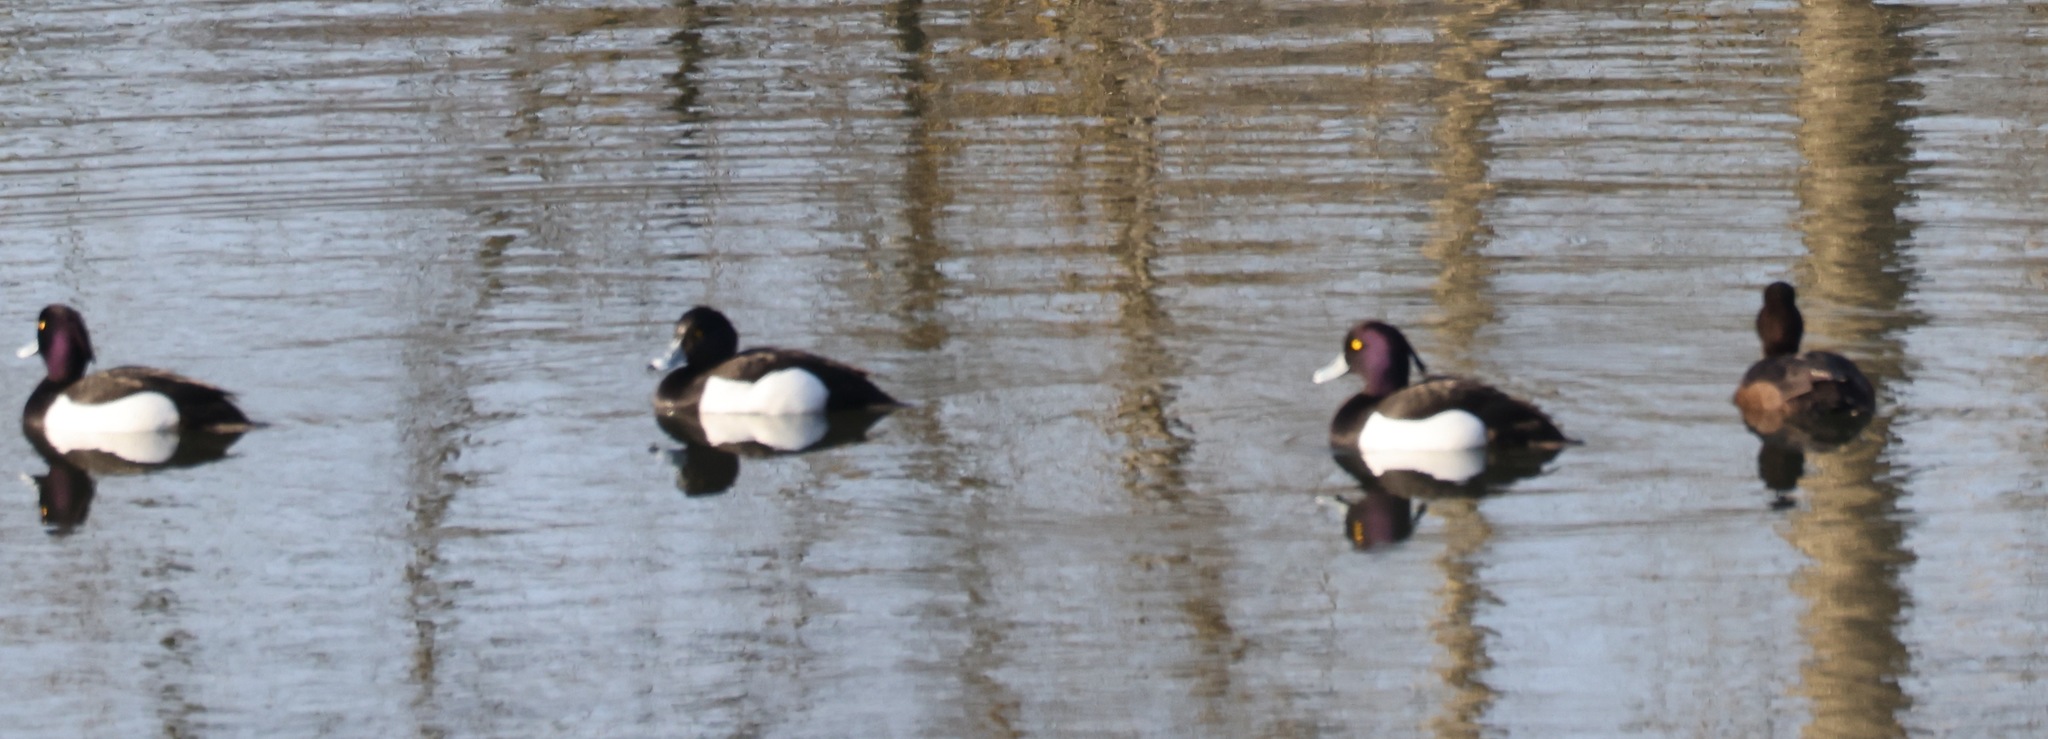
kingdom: Animalia
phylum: Chordata
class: Aves
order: Anseriformes
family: Anatidae
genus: Aythya
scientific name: Aythya fuligula
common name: Tufted duck
